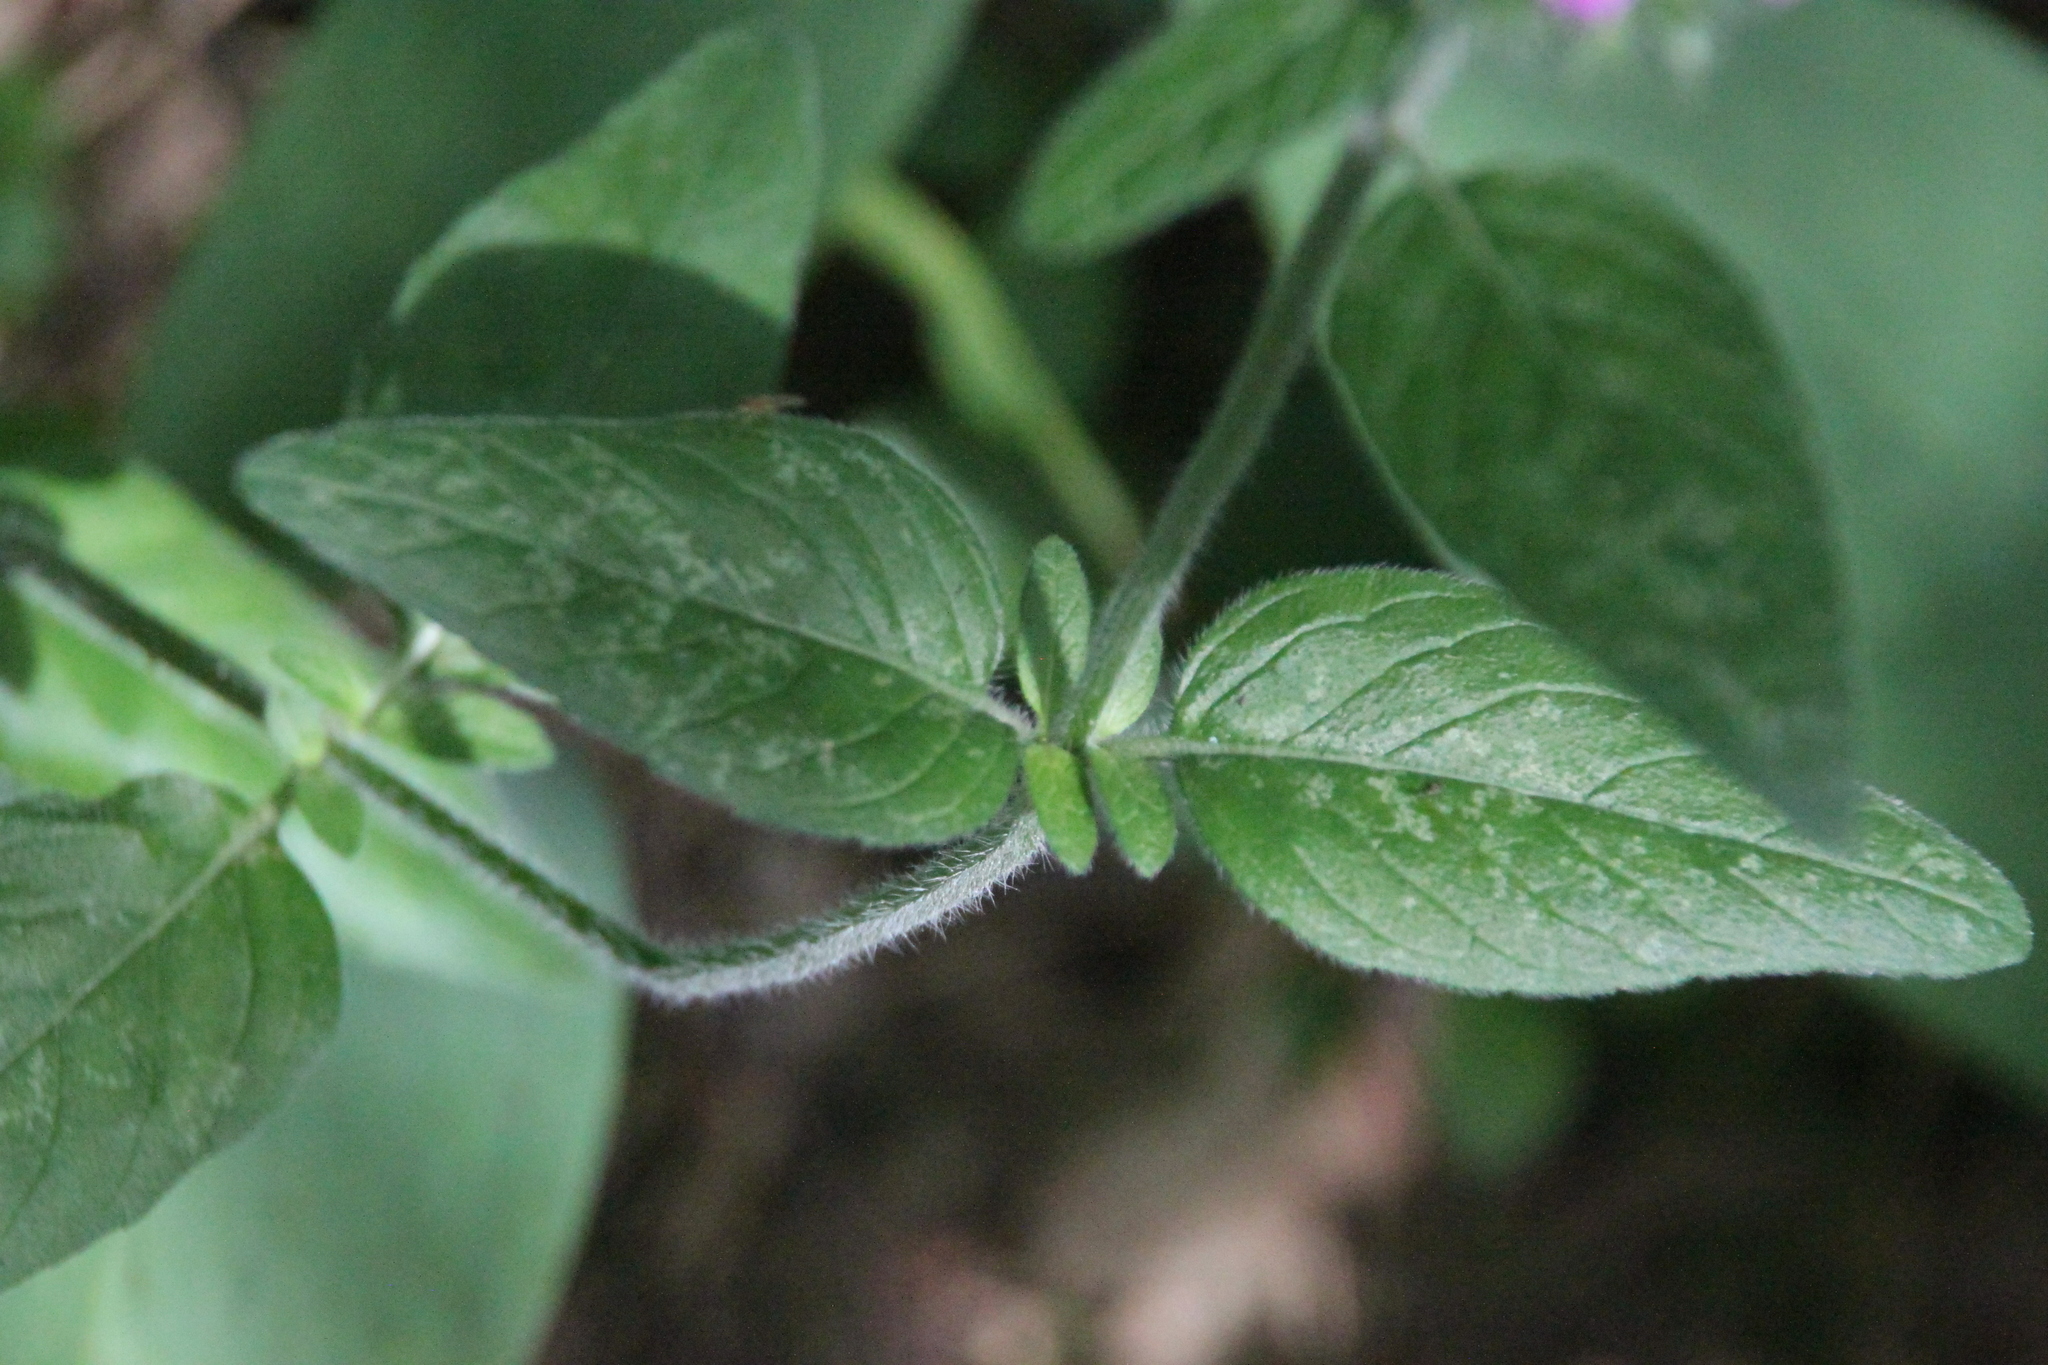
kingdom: Plantae
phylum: Tracheophyta
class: Magnoliopsida
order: Lamiales
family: Lamiaceae
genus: Clinopodium
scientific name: Clinopodium vulgare
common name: Wild basil
